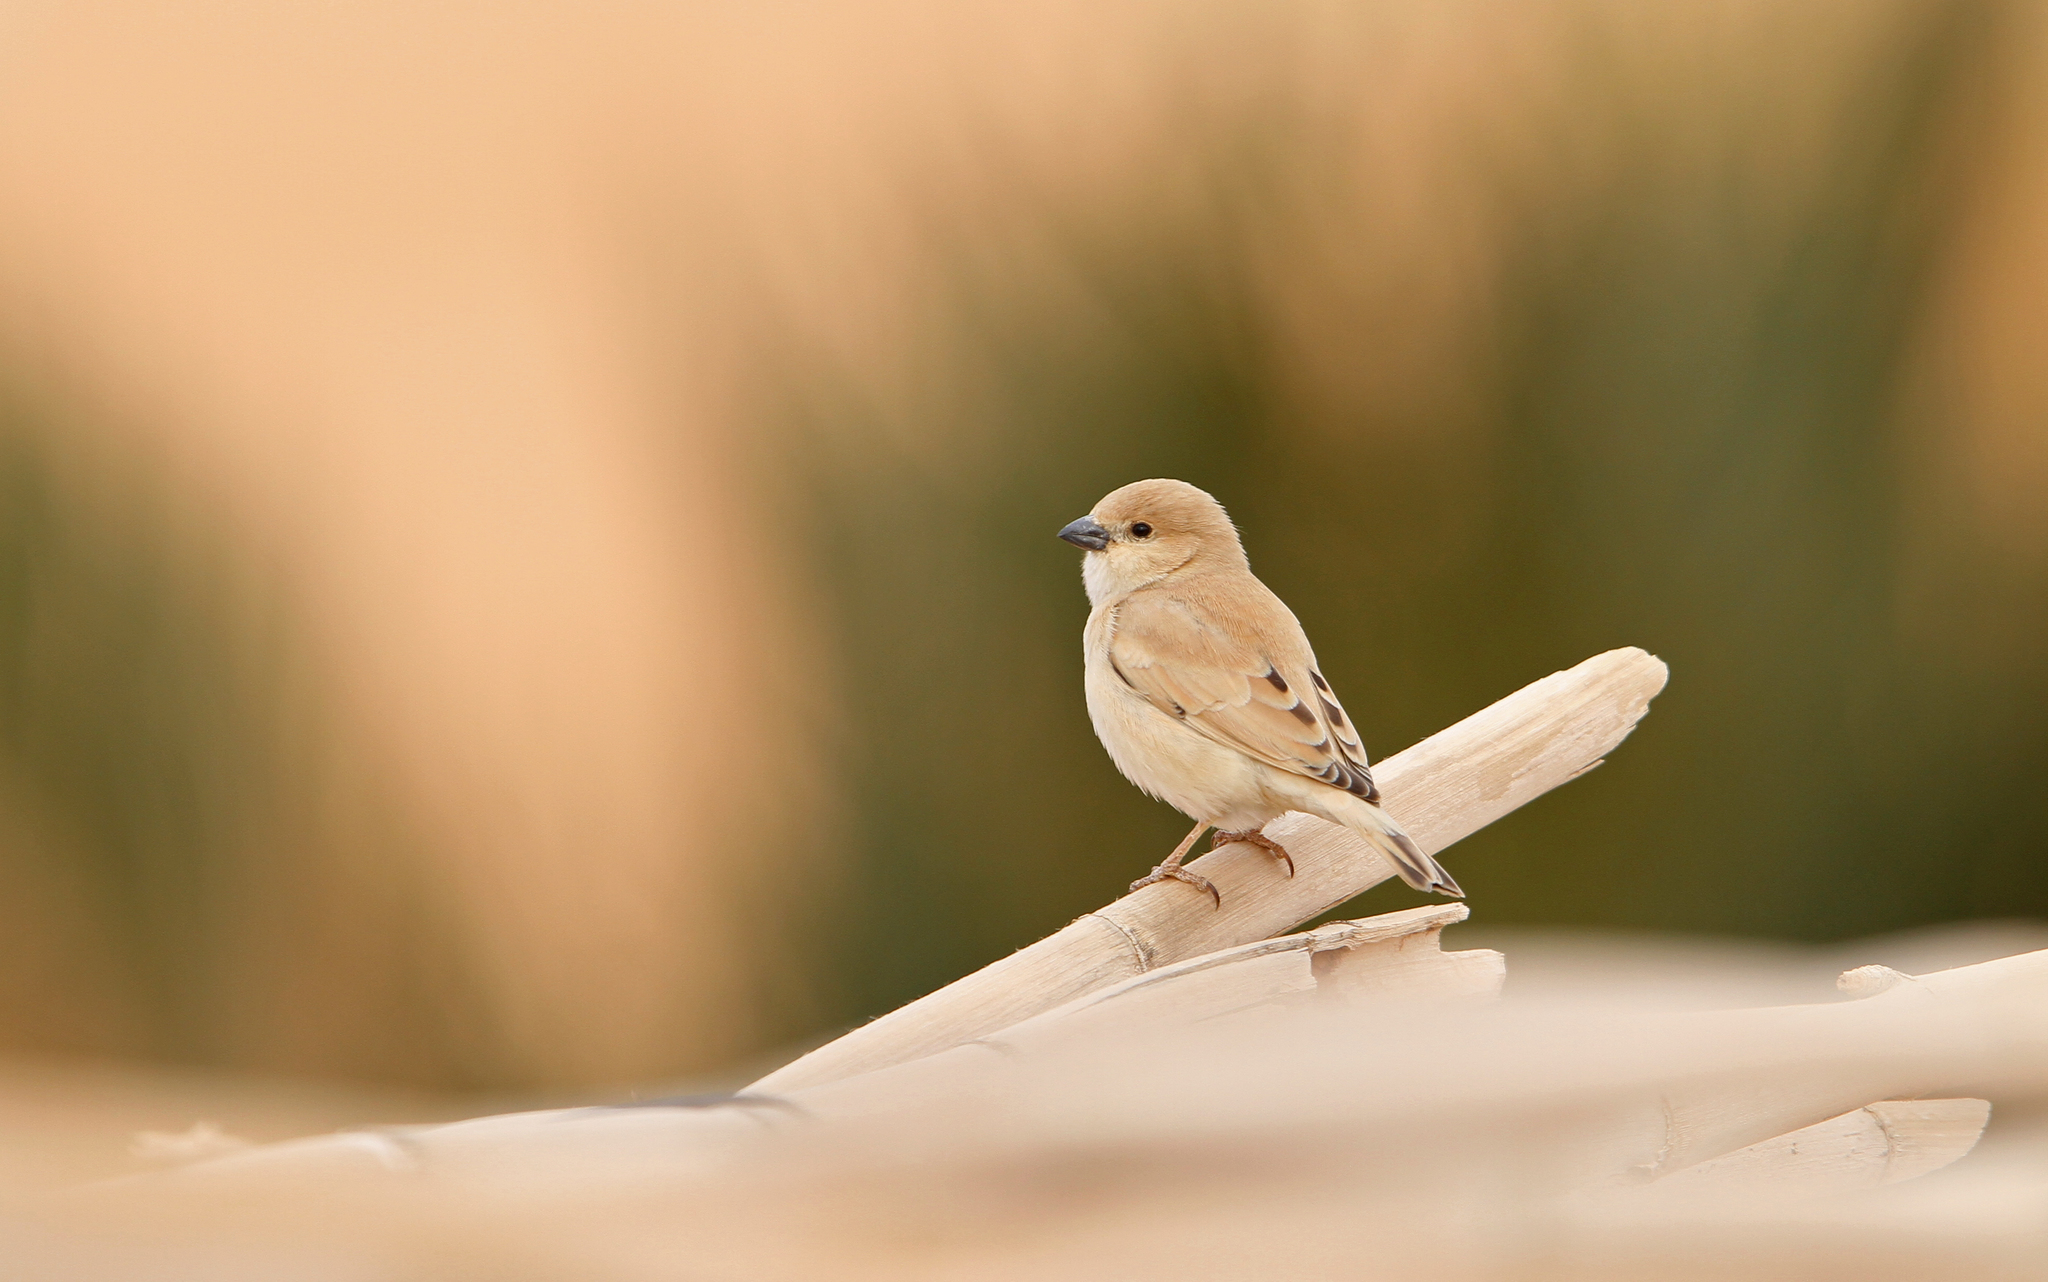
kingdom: Animalia
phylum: Chordata
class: Aves
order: Passeriformes
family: Passeridae
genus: Passer
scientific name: Passer simplex
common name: Desert sparrow
